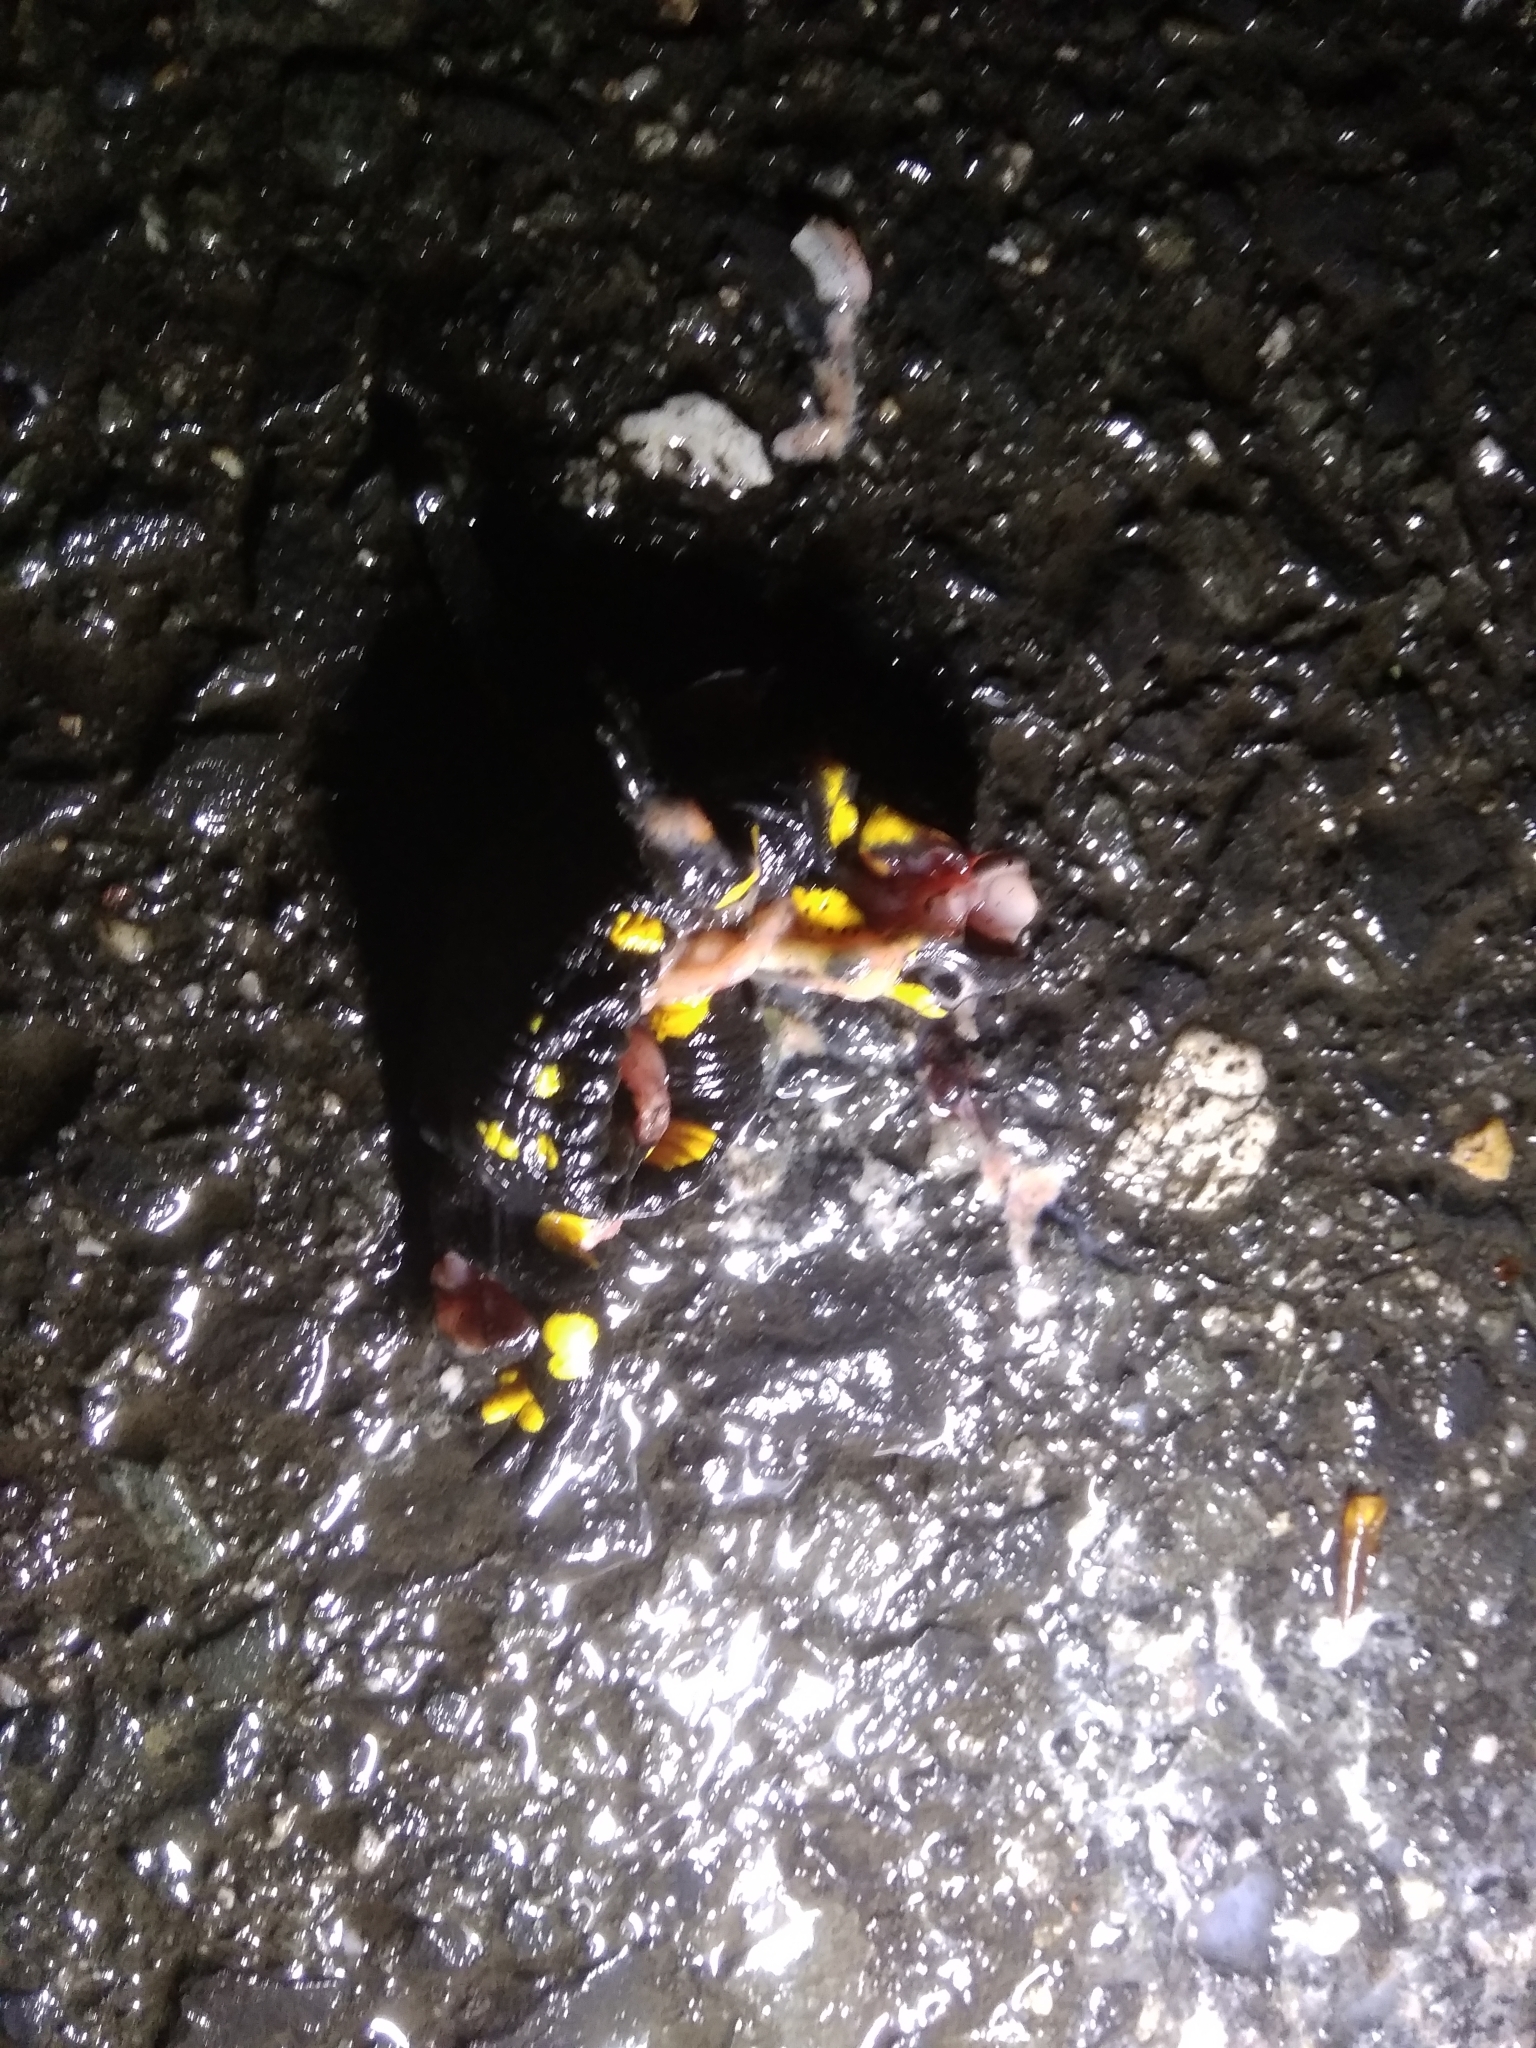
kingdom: Animalia
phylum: Chordata
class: Amphibia
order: Caudata
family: Salamandridae
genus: Salamandra
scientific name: Salamandra salamandra
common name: Fire salamander
